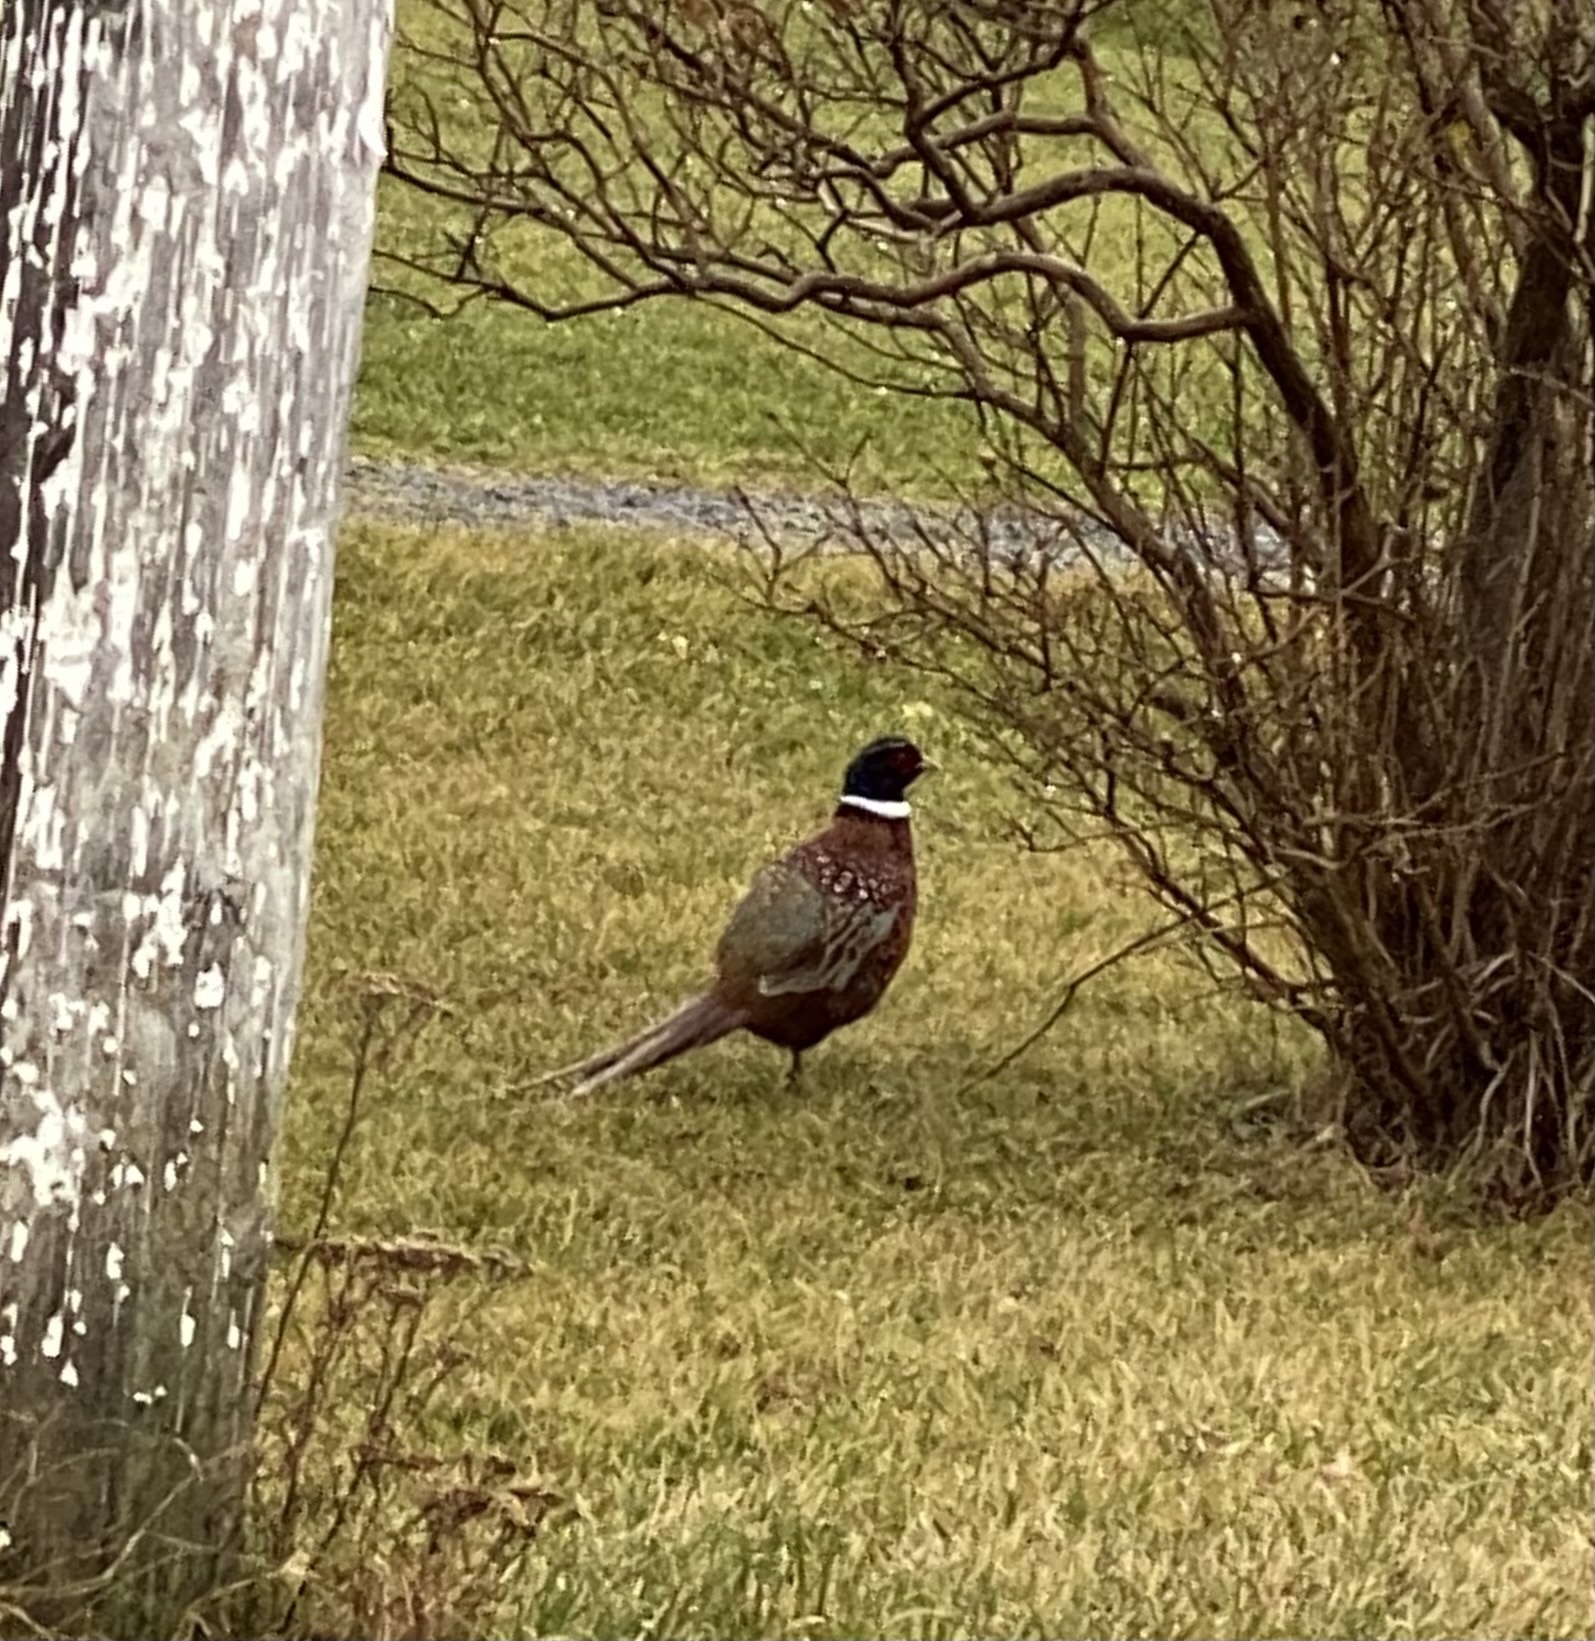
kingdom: Animalia
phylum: Chordata
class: Aves
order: Galliformes
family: Phasianidae
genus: Phasianus
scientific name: Phasianus colchicus
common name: Common pheasant
